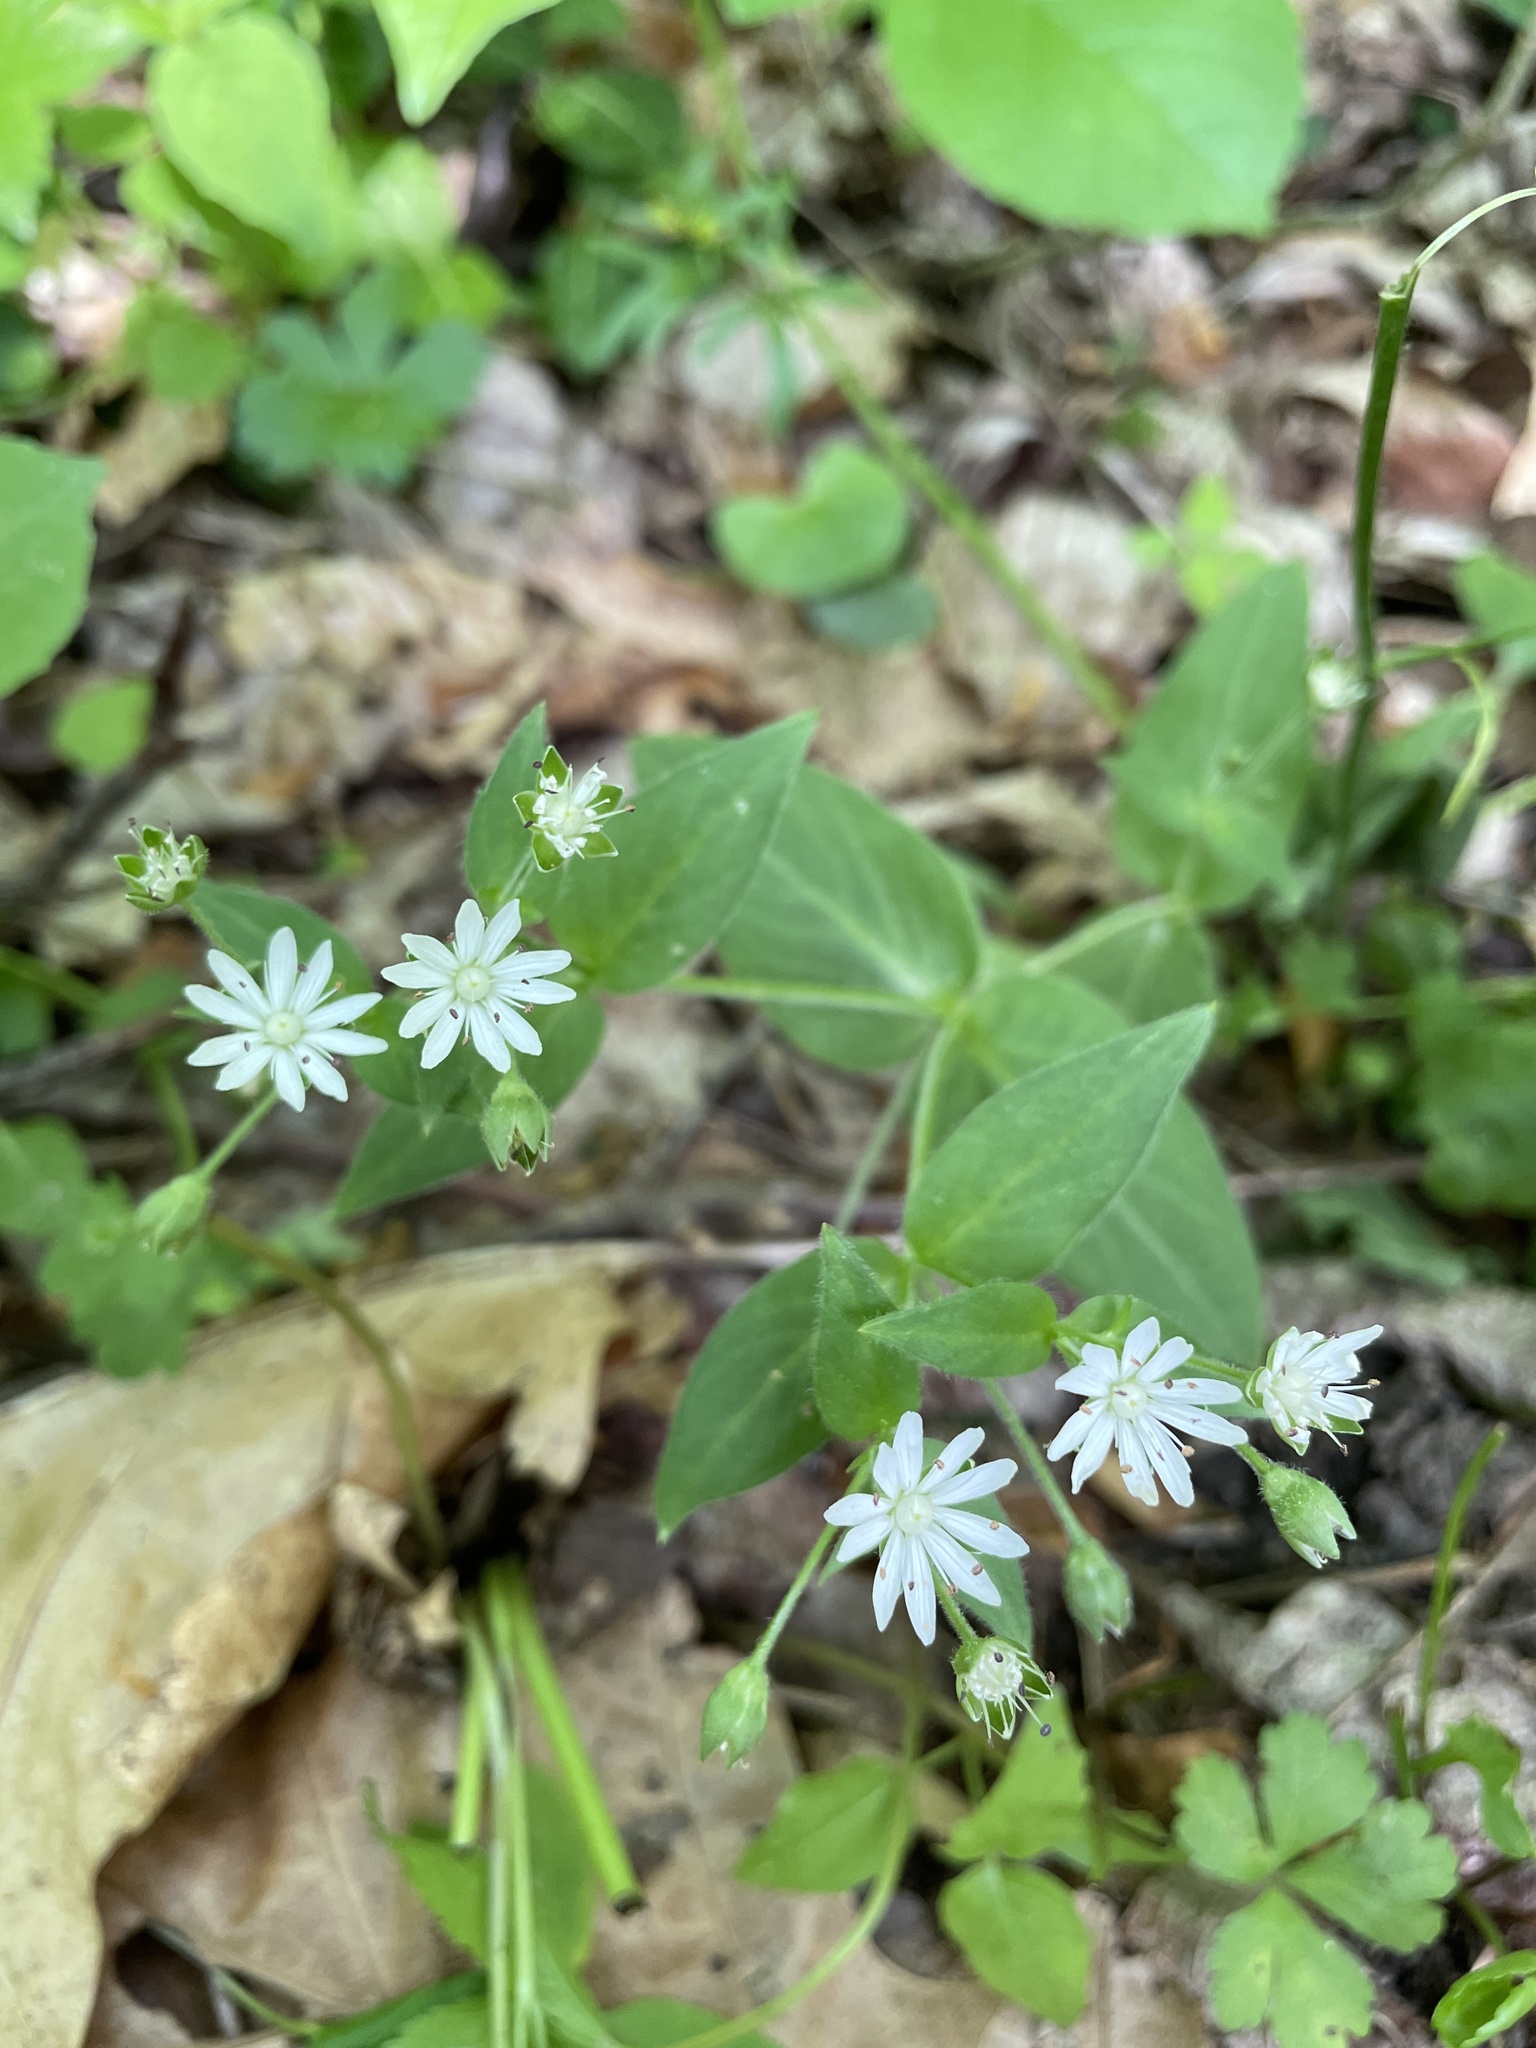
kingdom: Plantae
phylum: Tracheophyta
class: Magnoliopsida
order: Caryophyllales
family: Caryophyllaceae
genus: Stellaria
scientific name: Stellaria pubera
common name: Star chickweed
